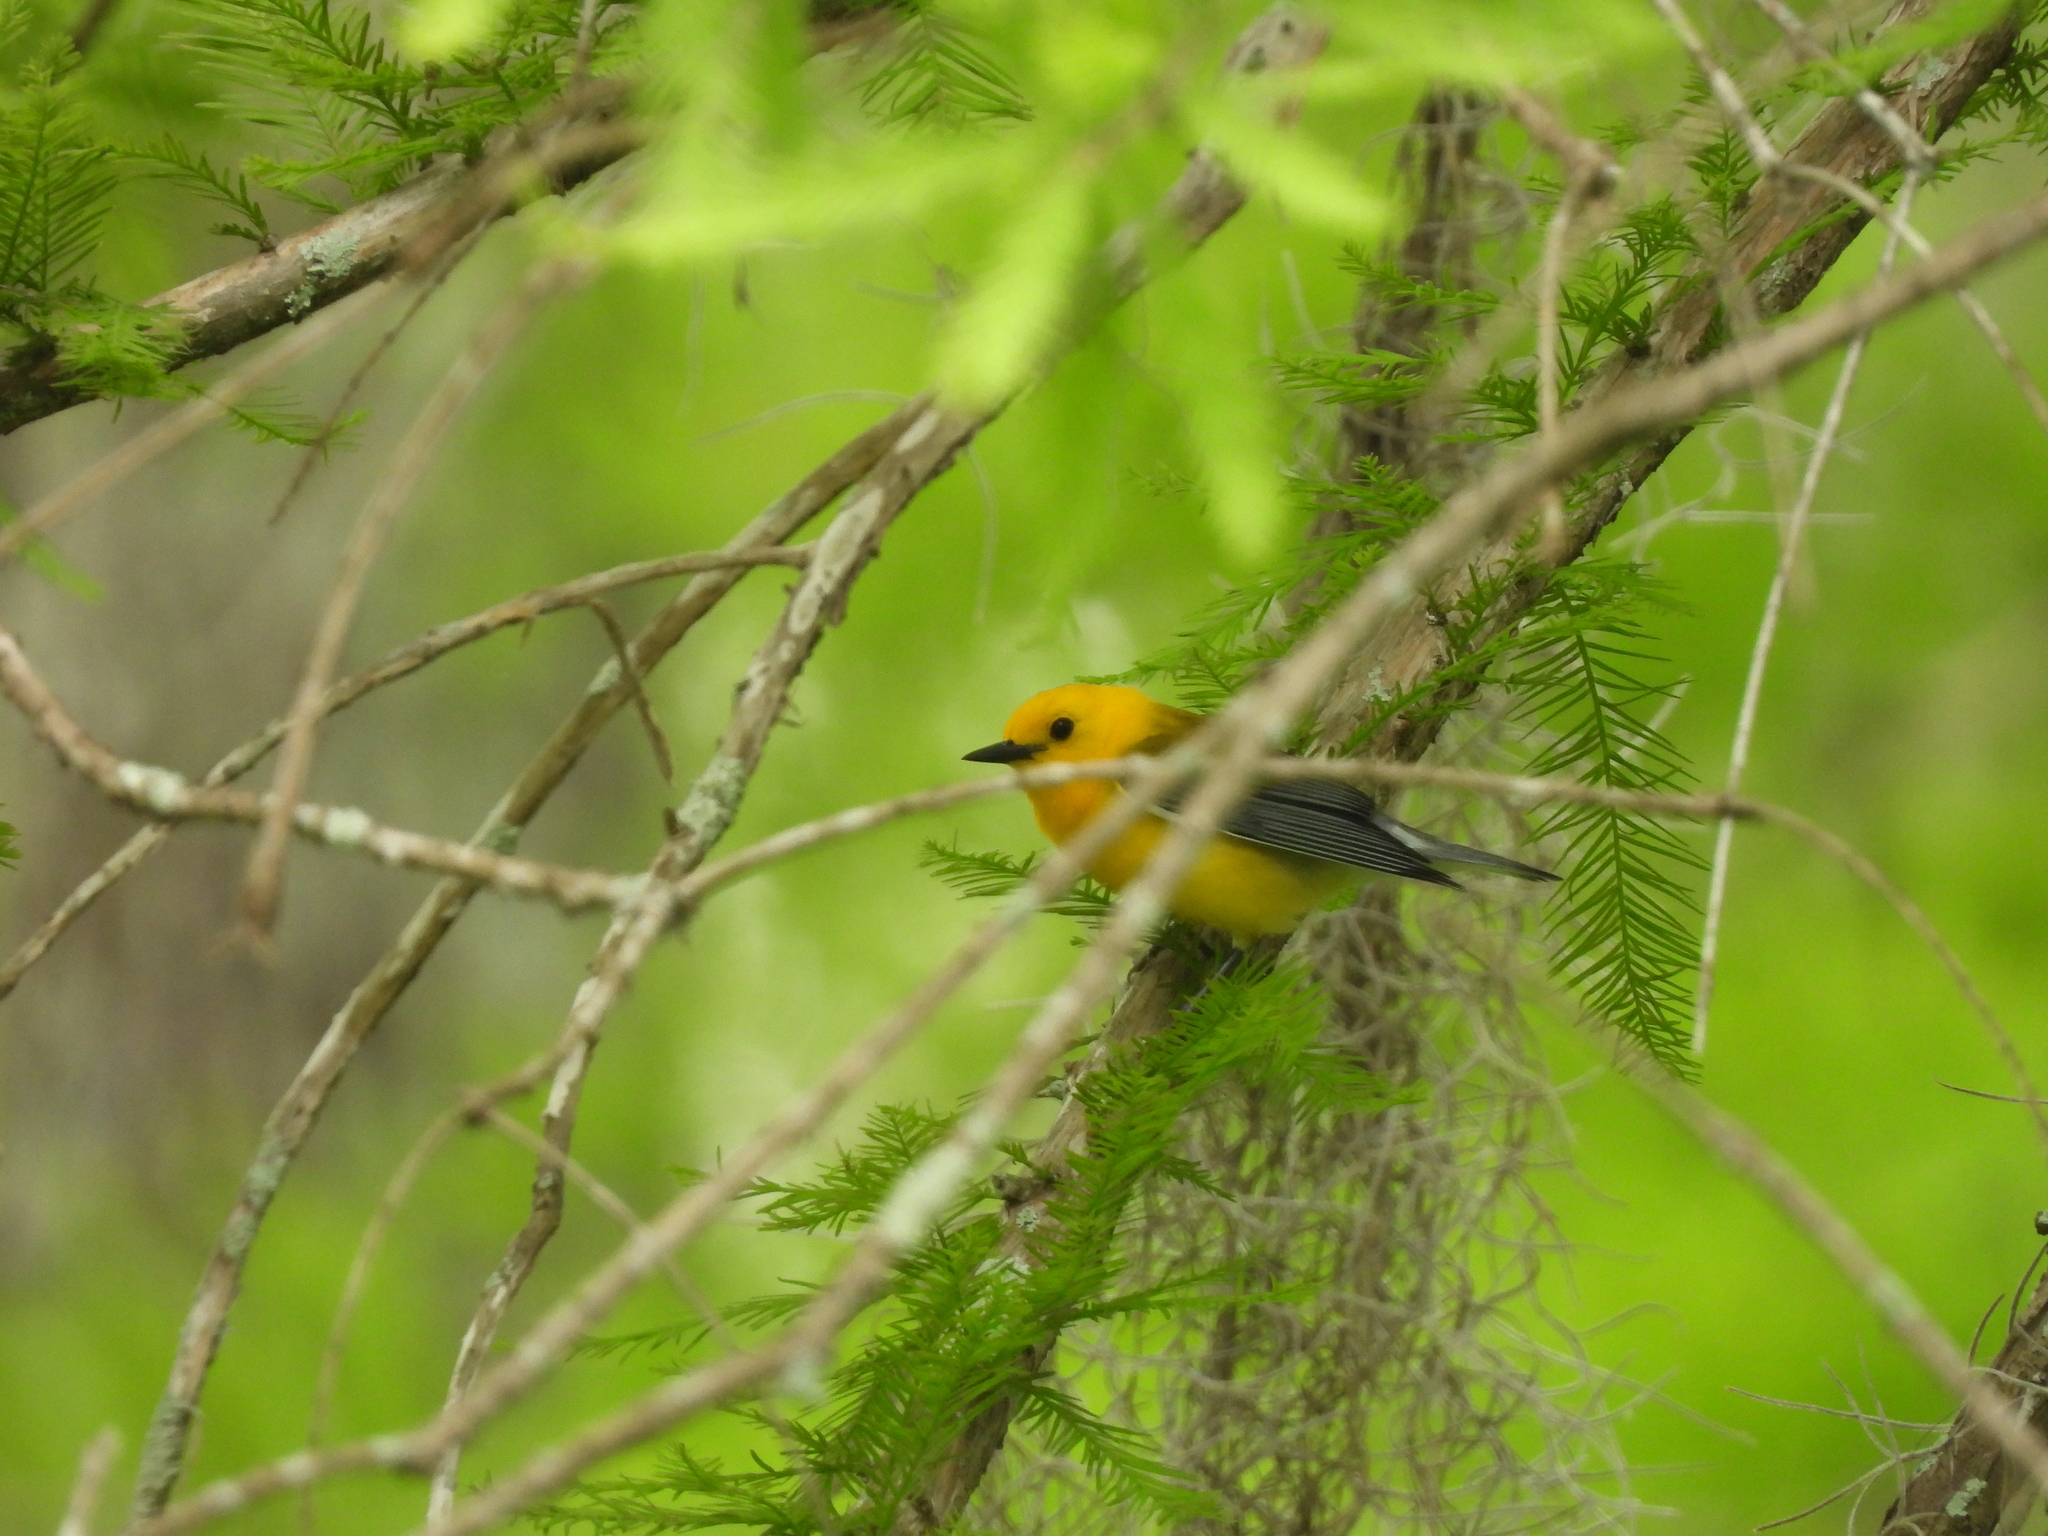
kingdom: Animalia
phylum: Chordata
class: Aves
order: Passeriformes
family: Parulidae
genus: Protonotaria
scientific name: Protonotaria citrea
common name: Prothonotary warbler
